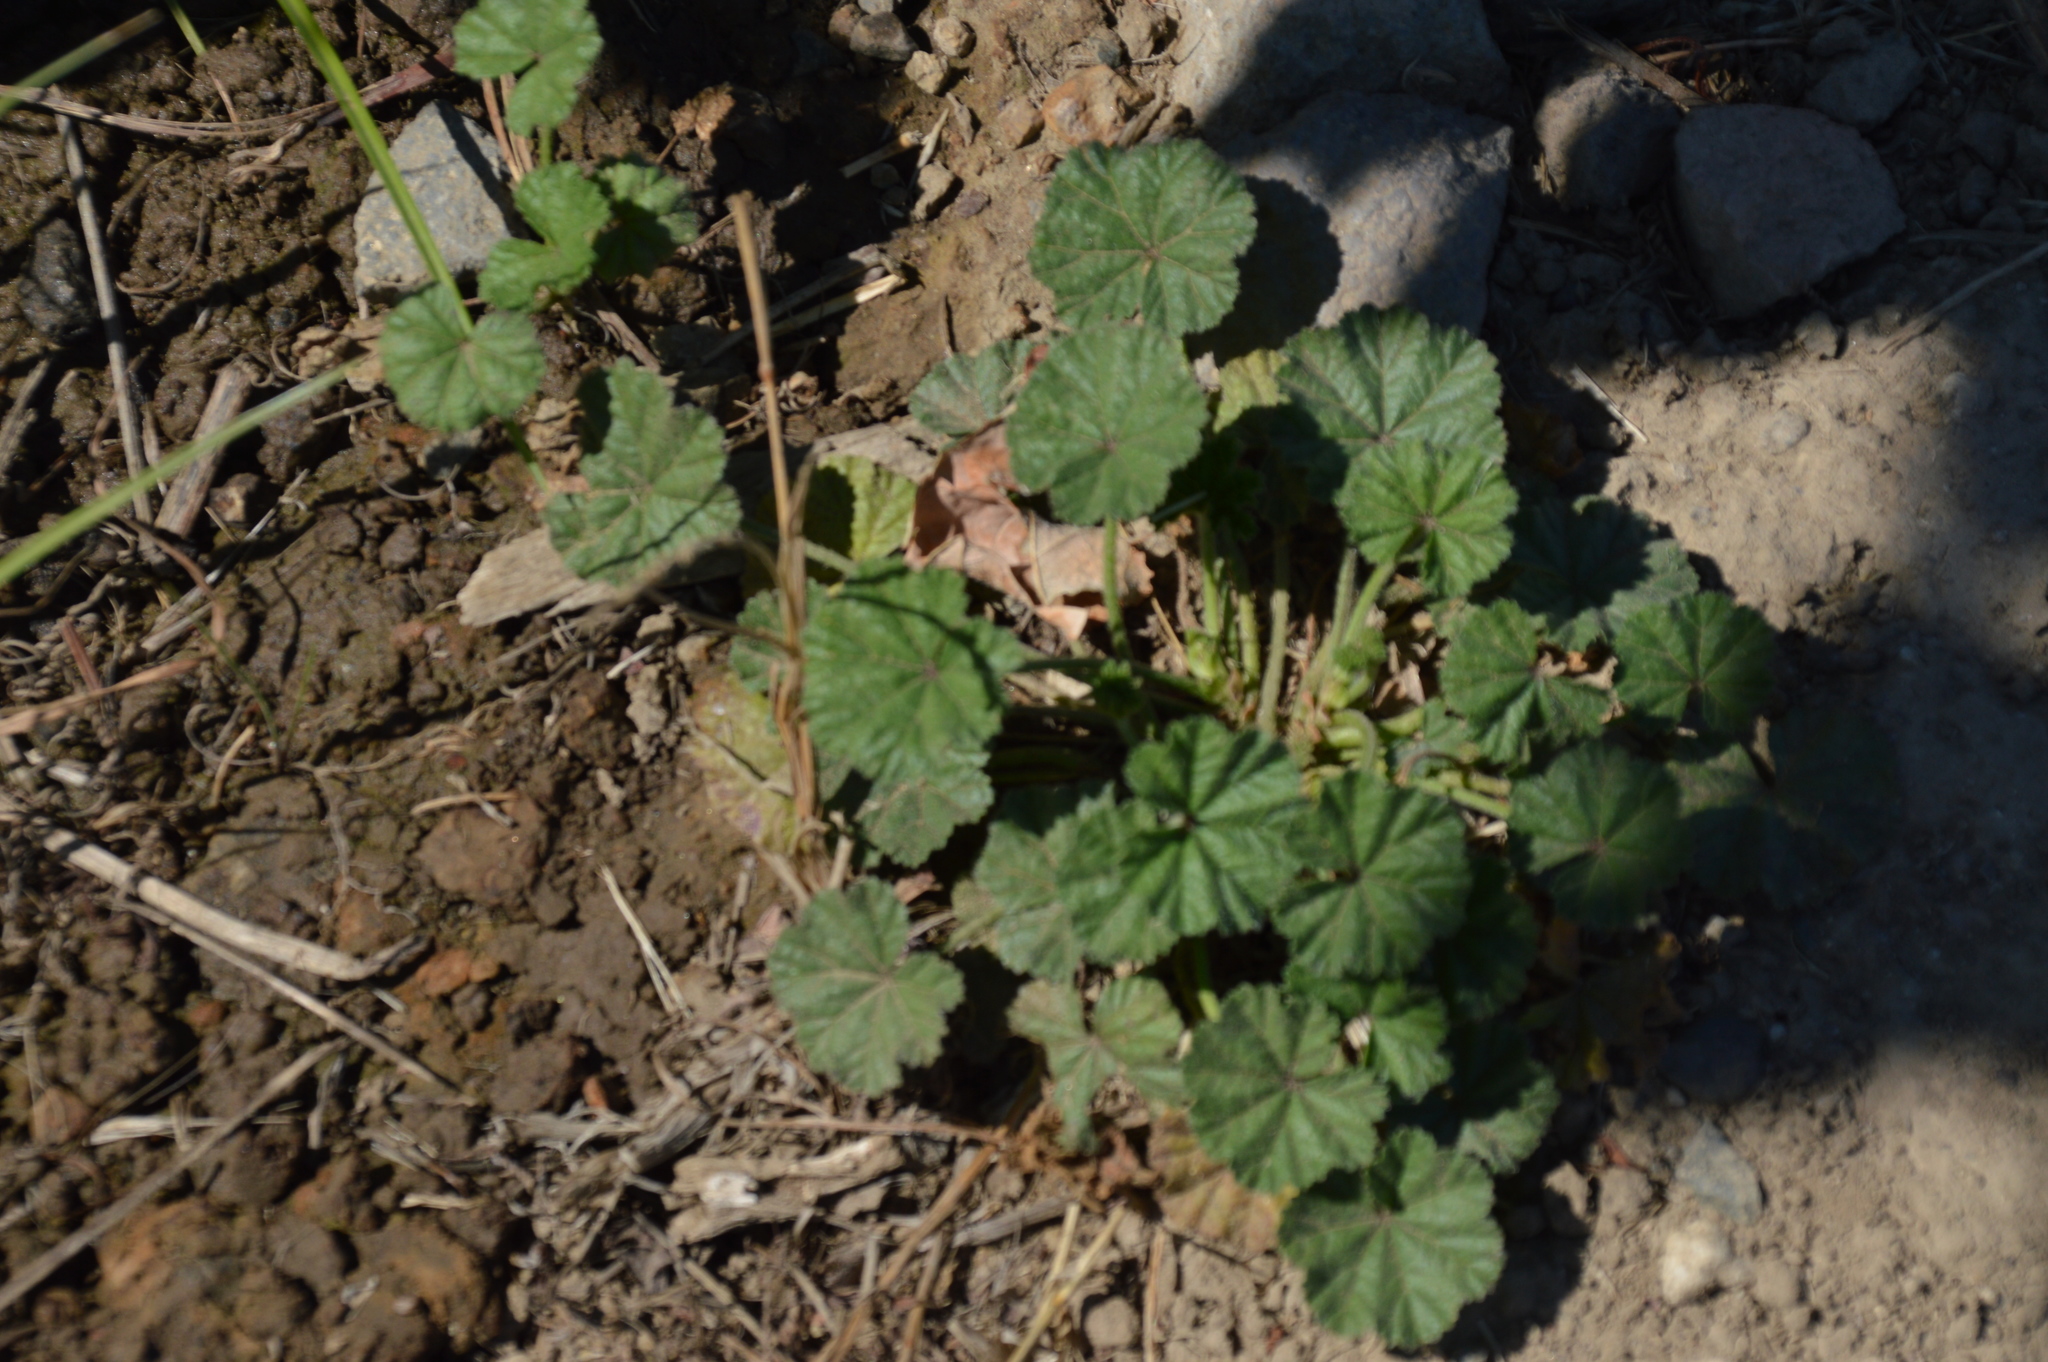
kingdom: Plantae
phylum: Tracheophyta
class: Magnoliopsida
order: Malvales
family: Malvaceae
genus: Malva
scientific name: Malva
